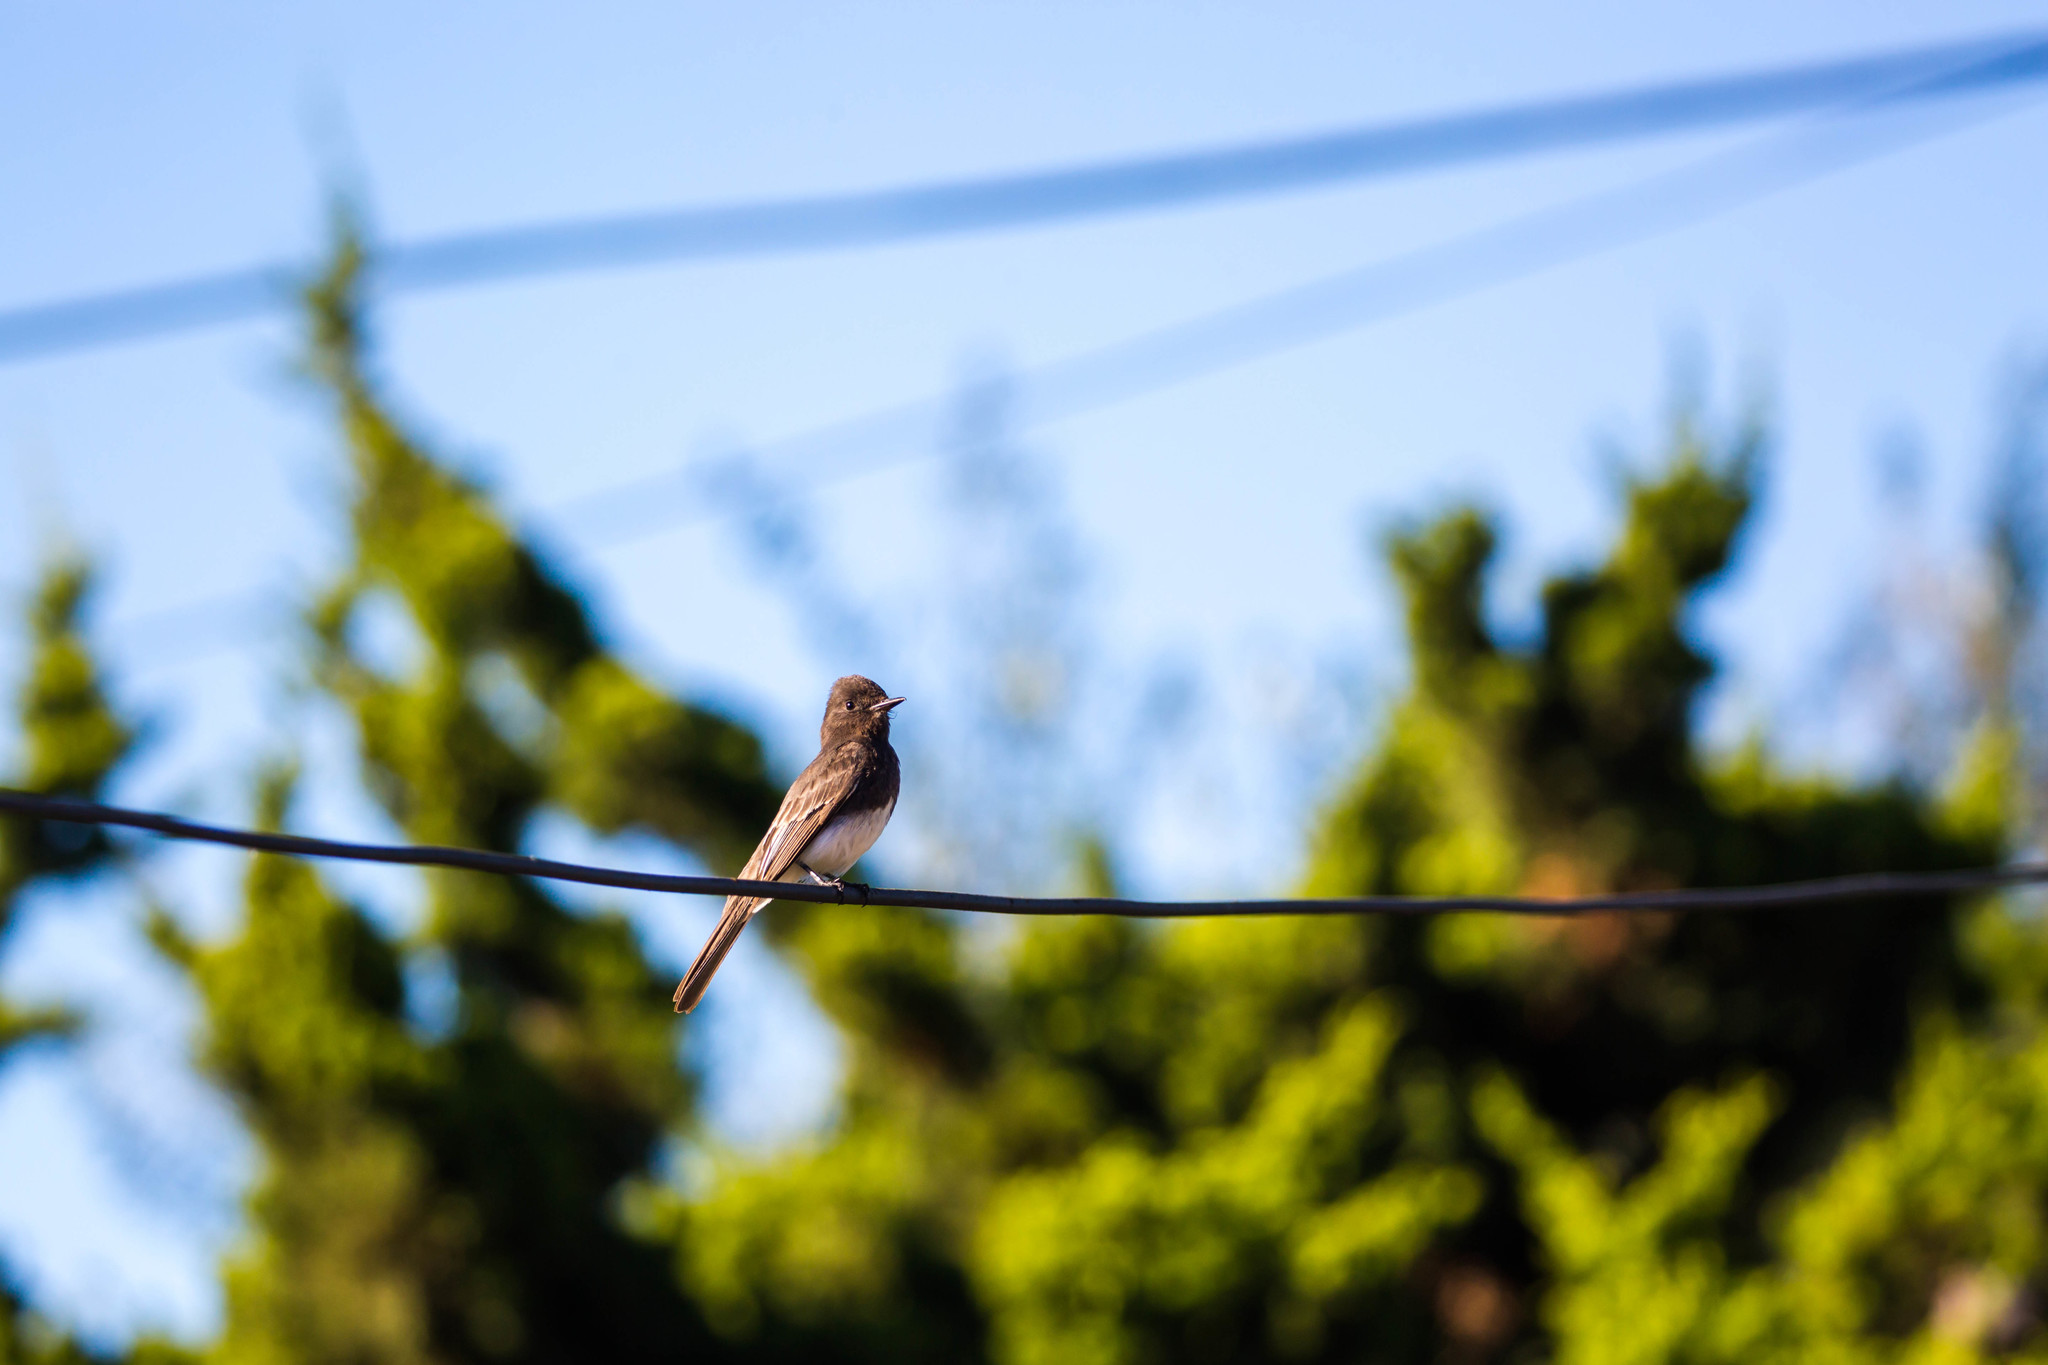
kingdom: Animalia
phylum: Chordata
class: Aves
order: Passeriformes
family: Tyrannidae
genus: Sayornis
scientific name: Sayornis nigricans
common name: Black phoebe
